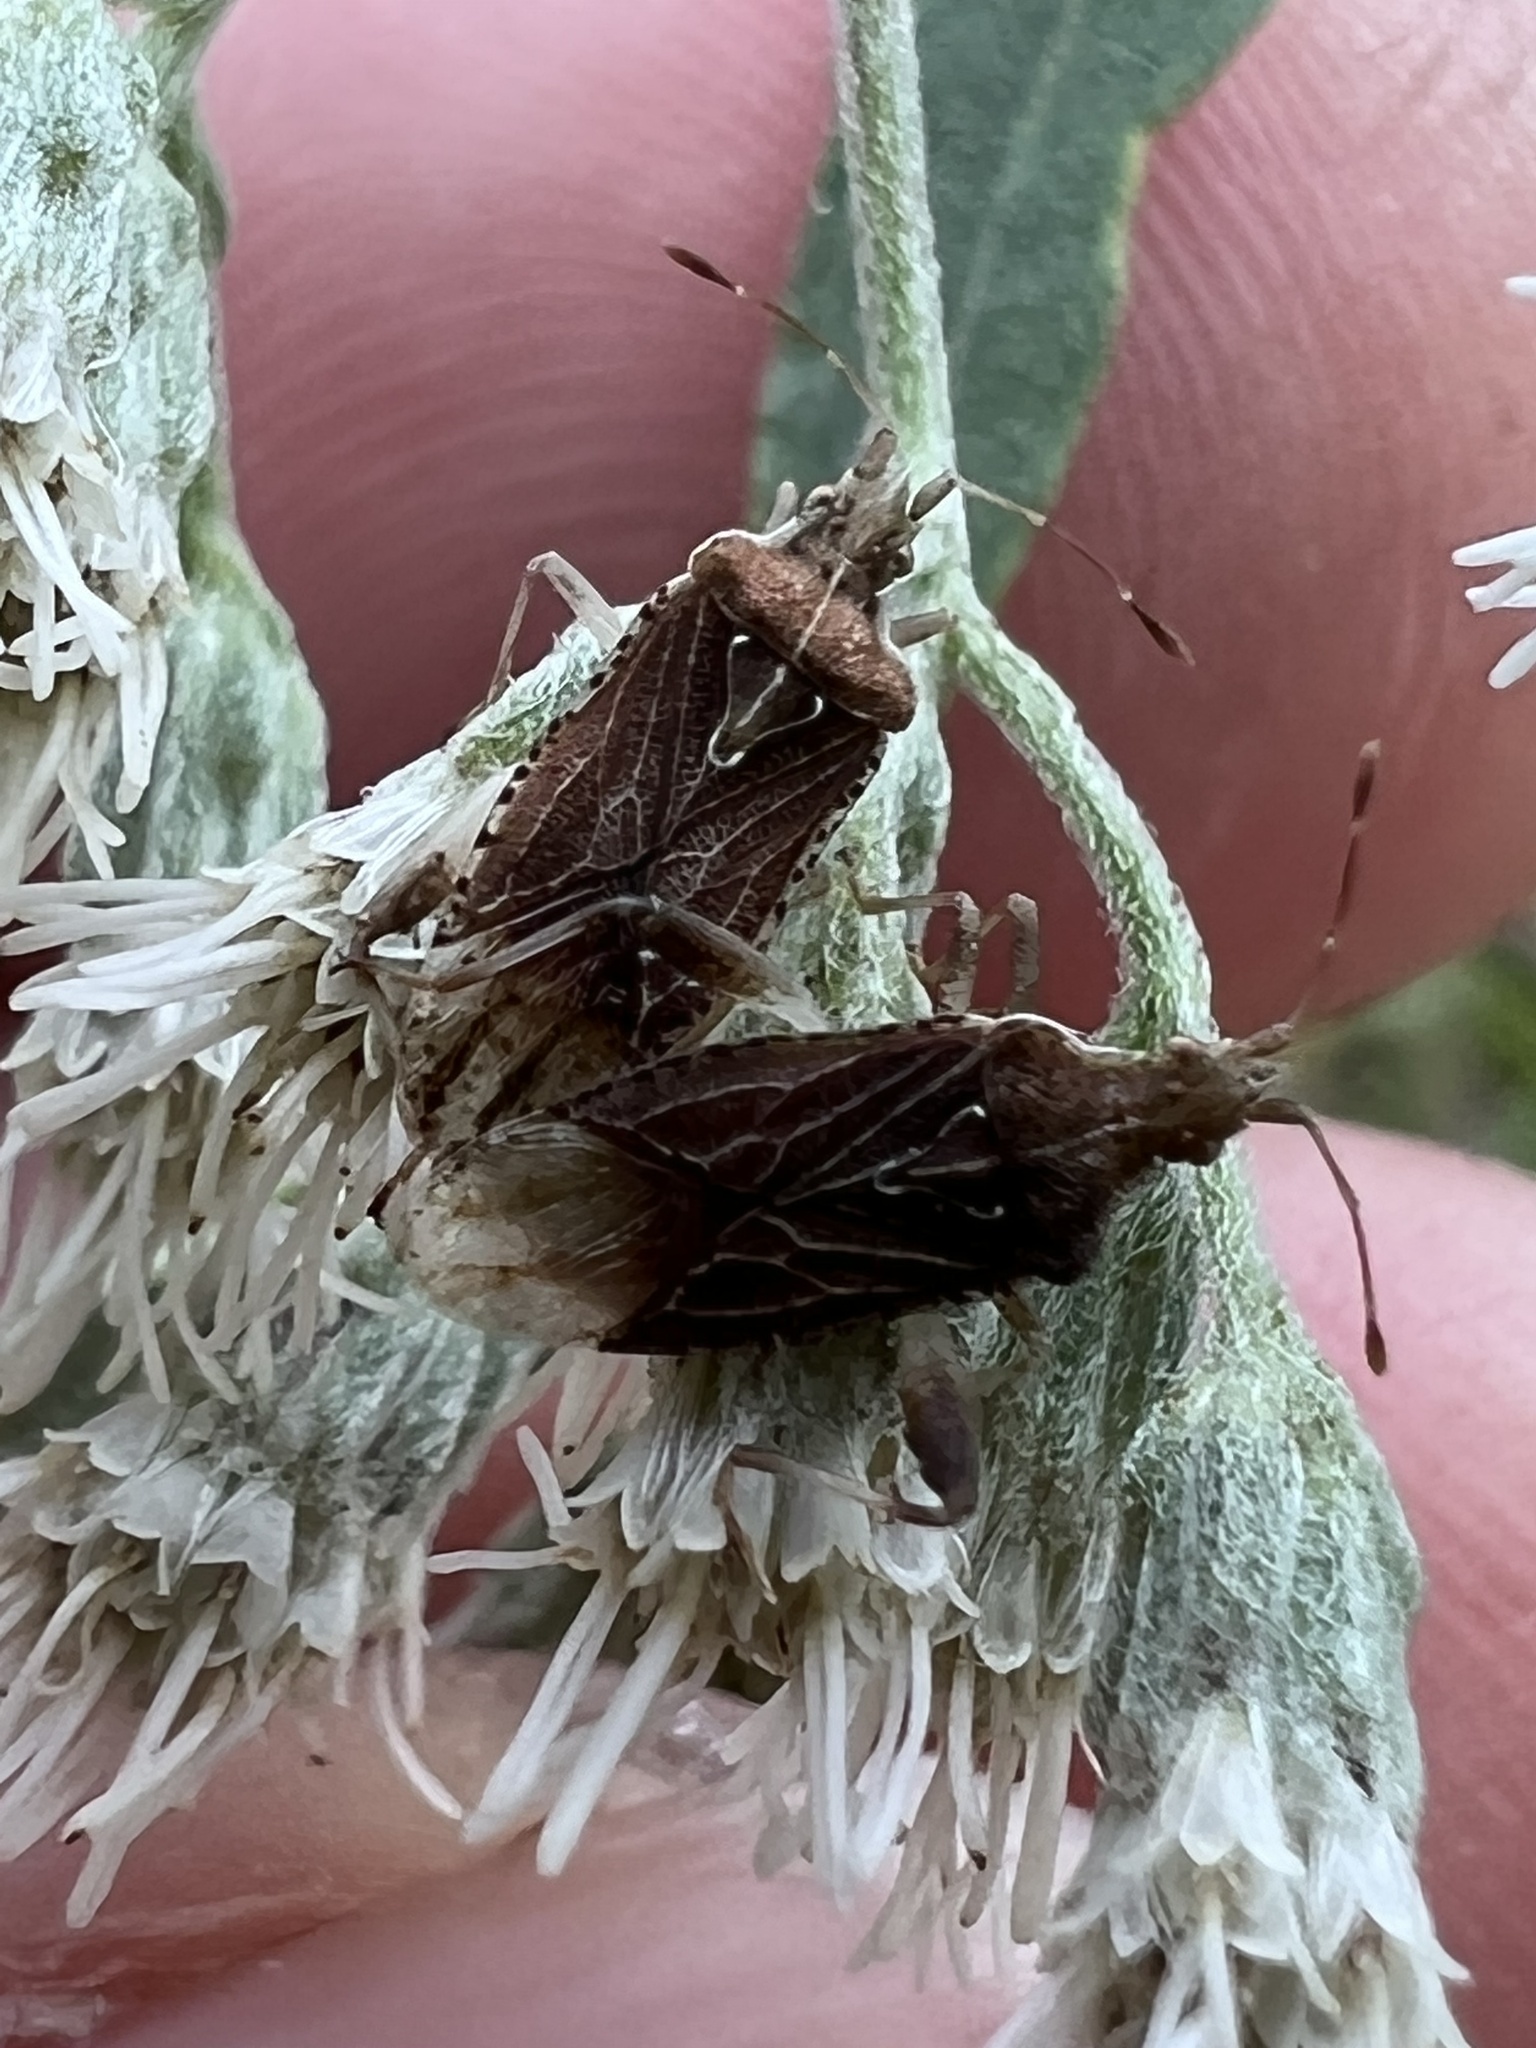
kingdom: Animalia
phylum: Arthropoda
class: Insecta
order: Hemiptera
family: Rhopalidae
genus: Harmostes
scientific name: Harmostes fraterculus
